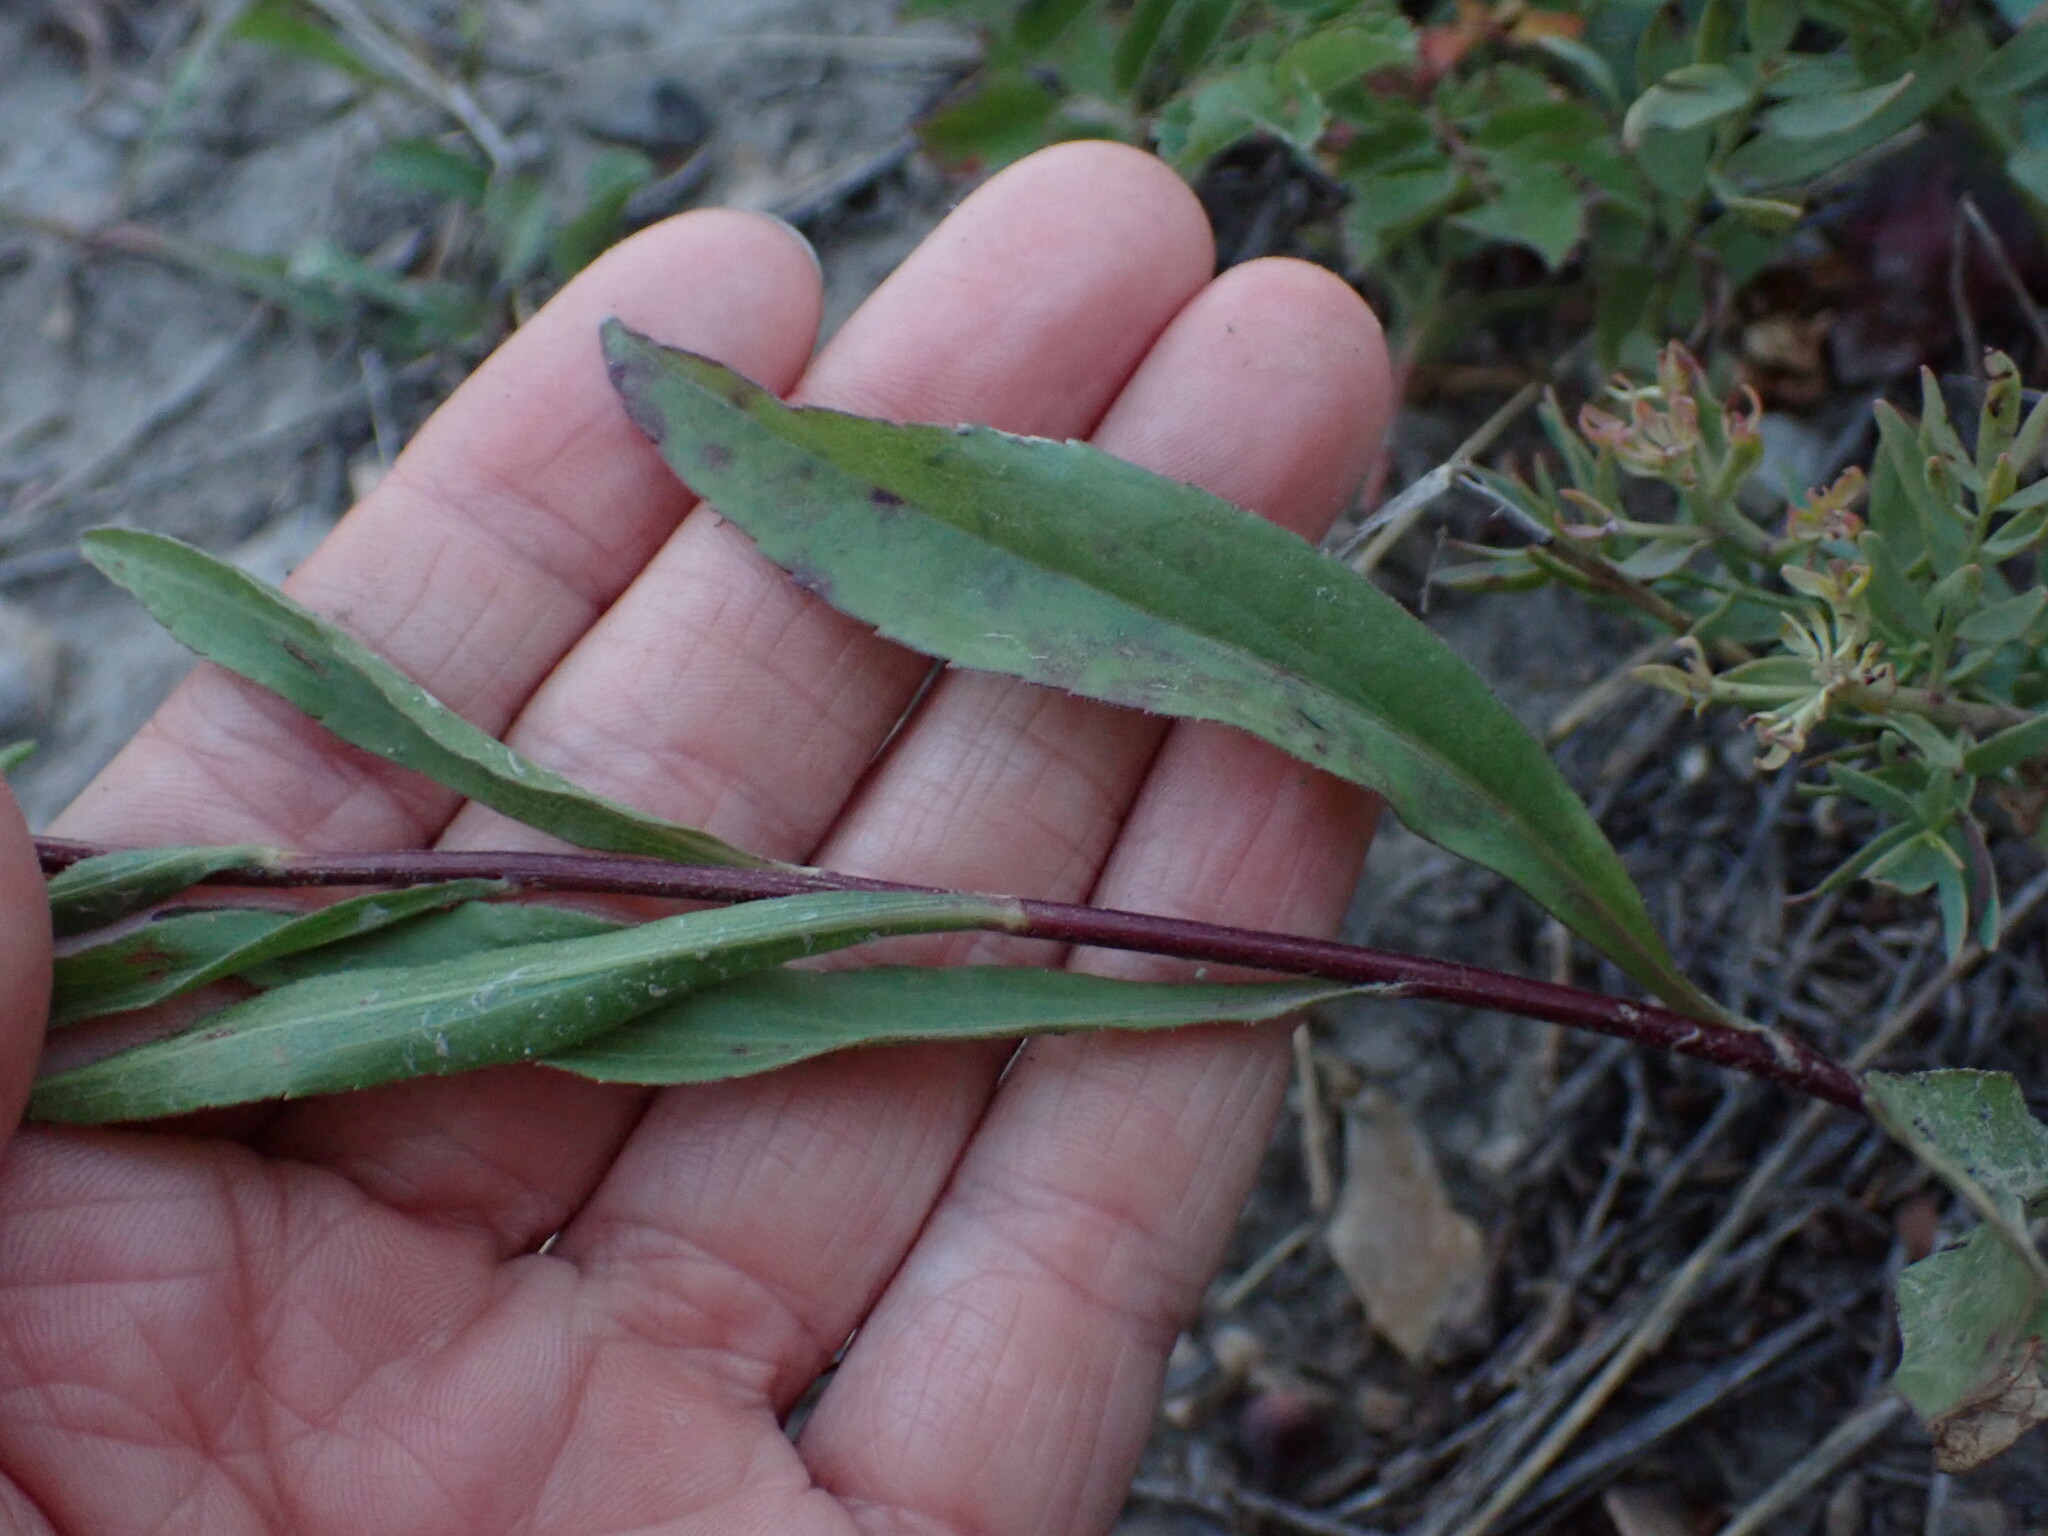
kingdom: Plantae
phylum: Tracheophyta
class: Magnoliopsida
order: Asterales
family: Asteraceae
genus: Solidago
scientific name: Solidago missouriensis
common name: Prairie goldenrod
